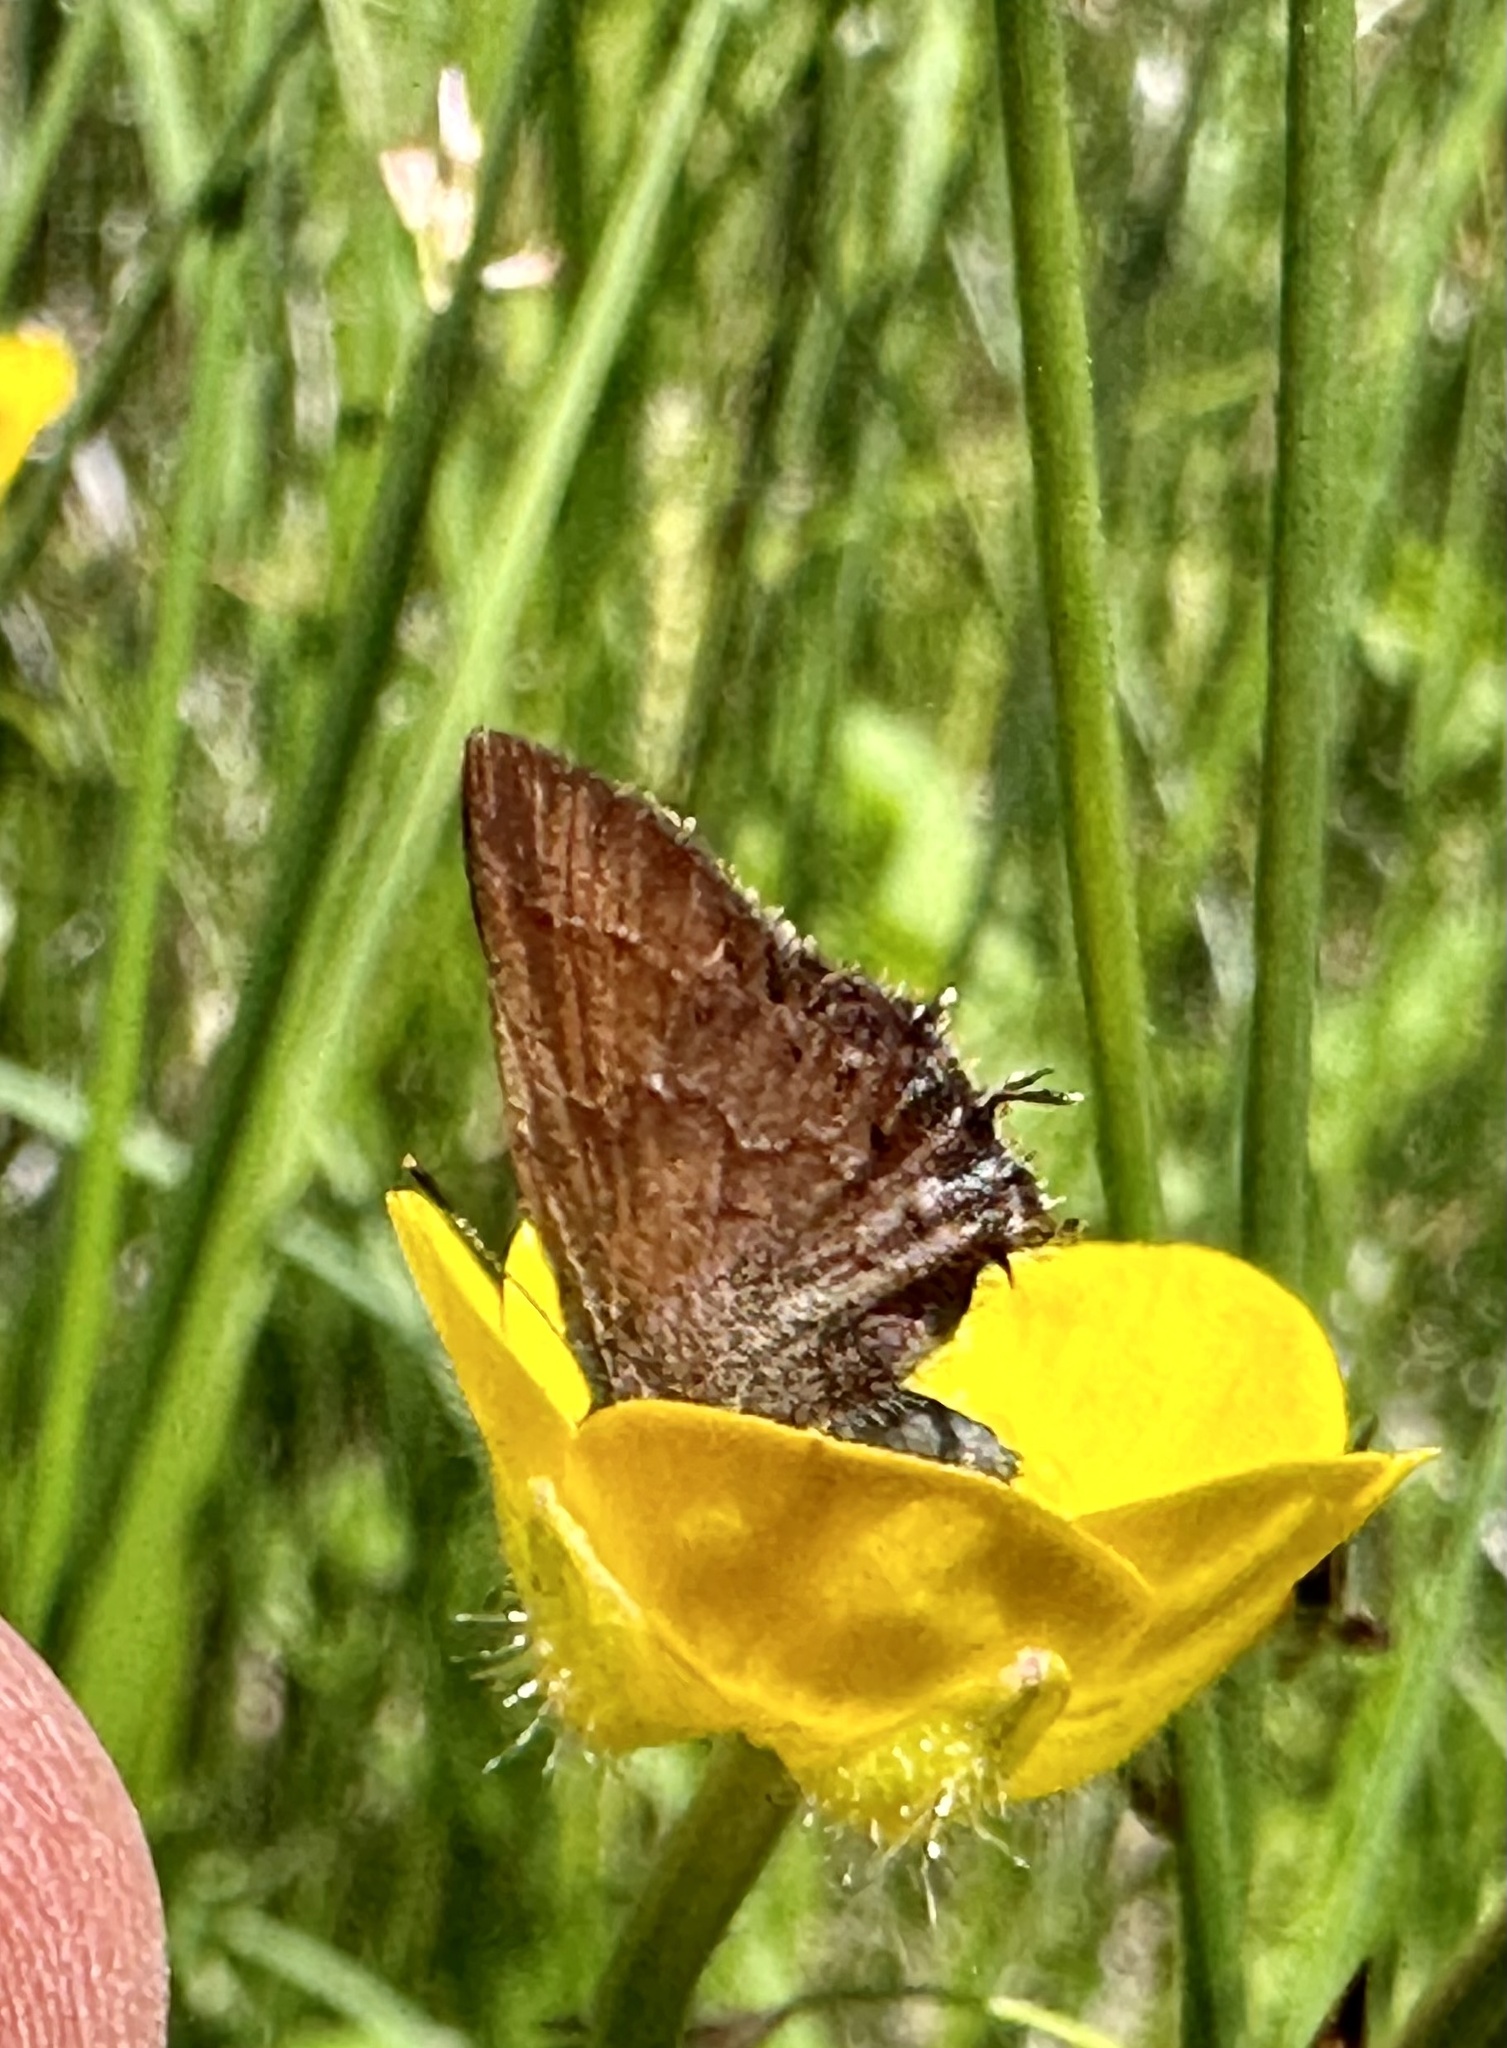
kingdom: Animalia
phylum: Arthropoda
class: Insecta
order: Lepidoptera
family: Lycaenidae
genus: Mitoura
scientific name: Mitoura gryneus
